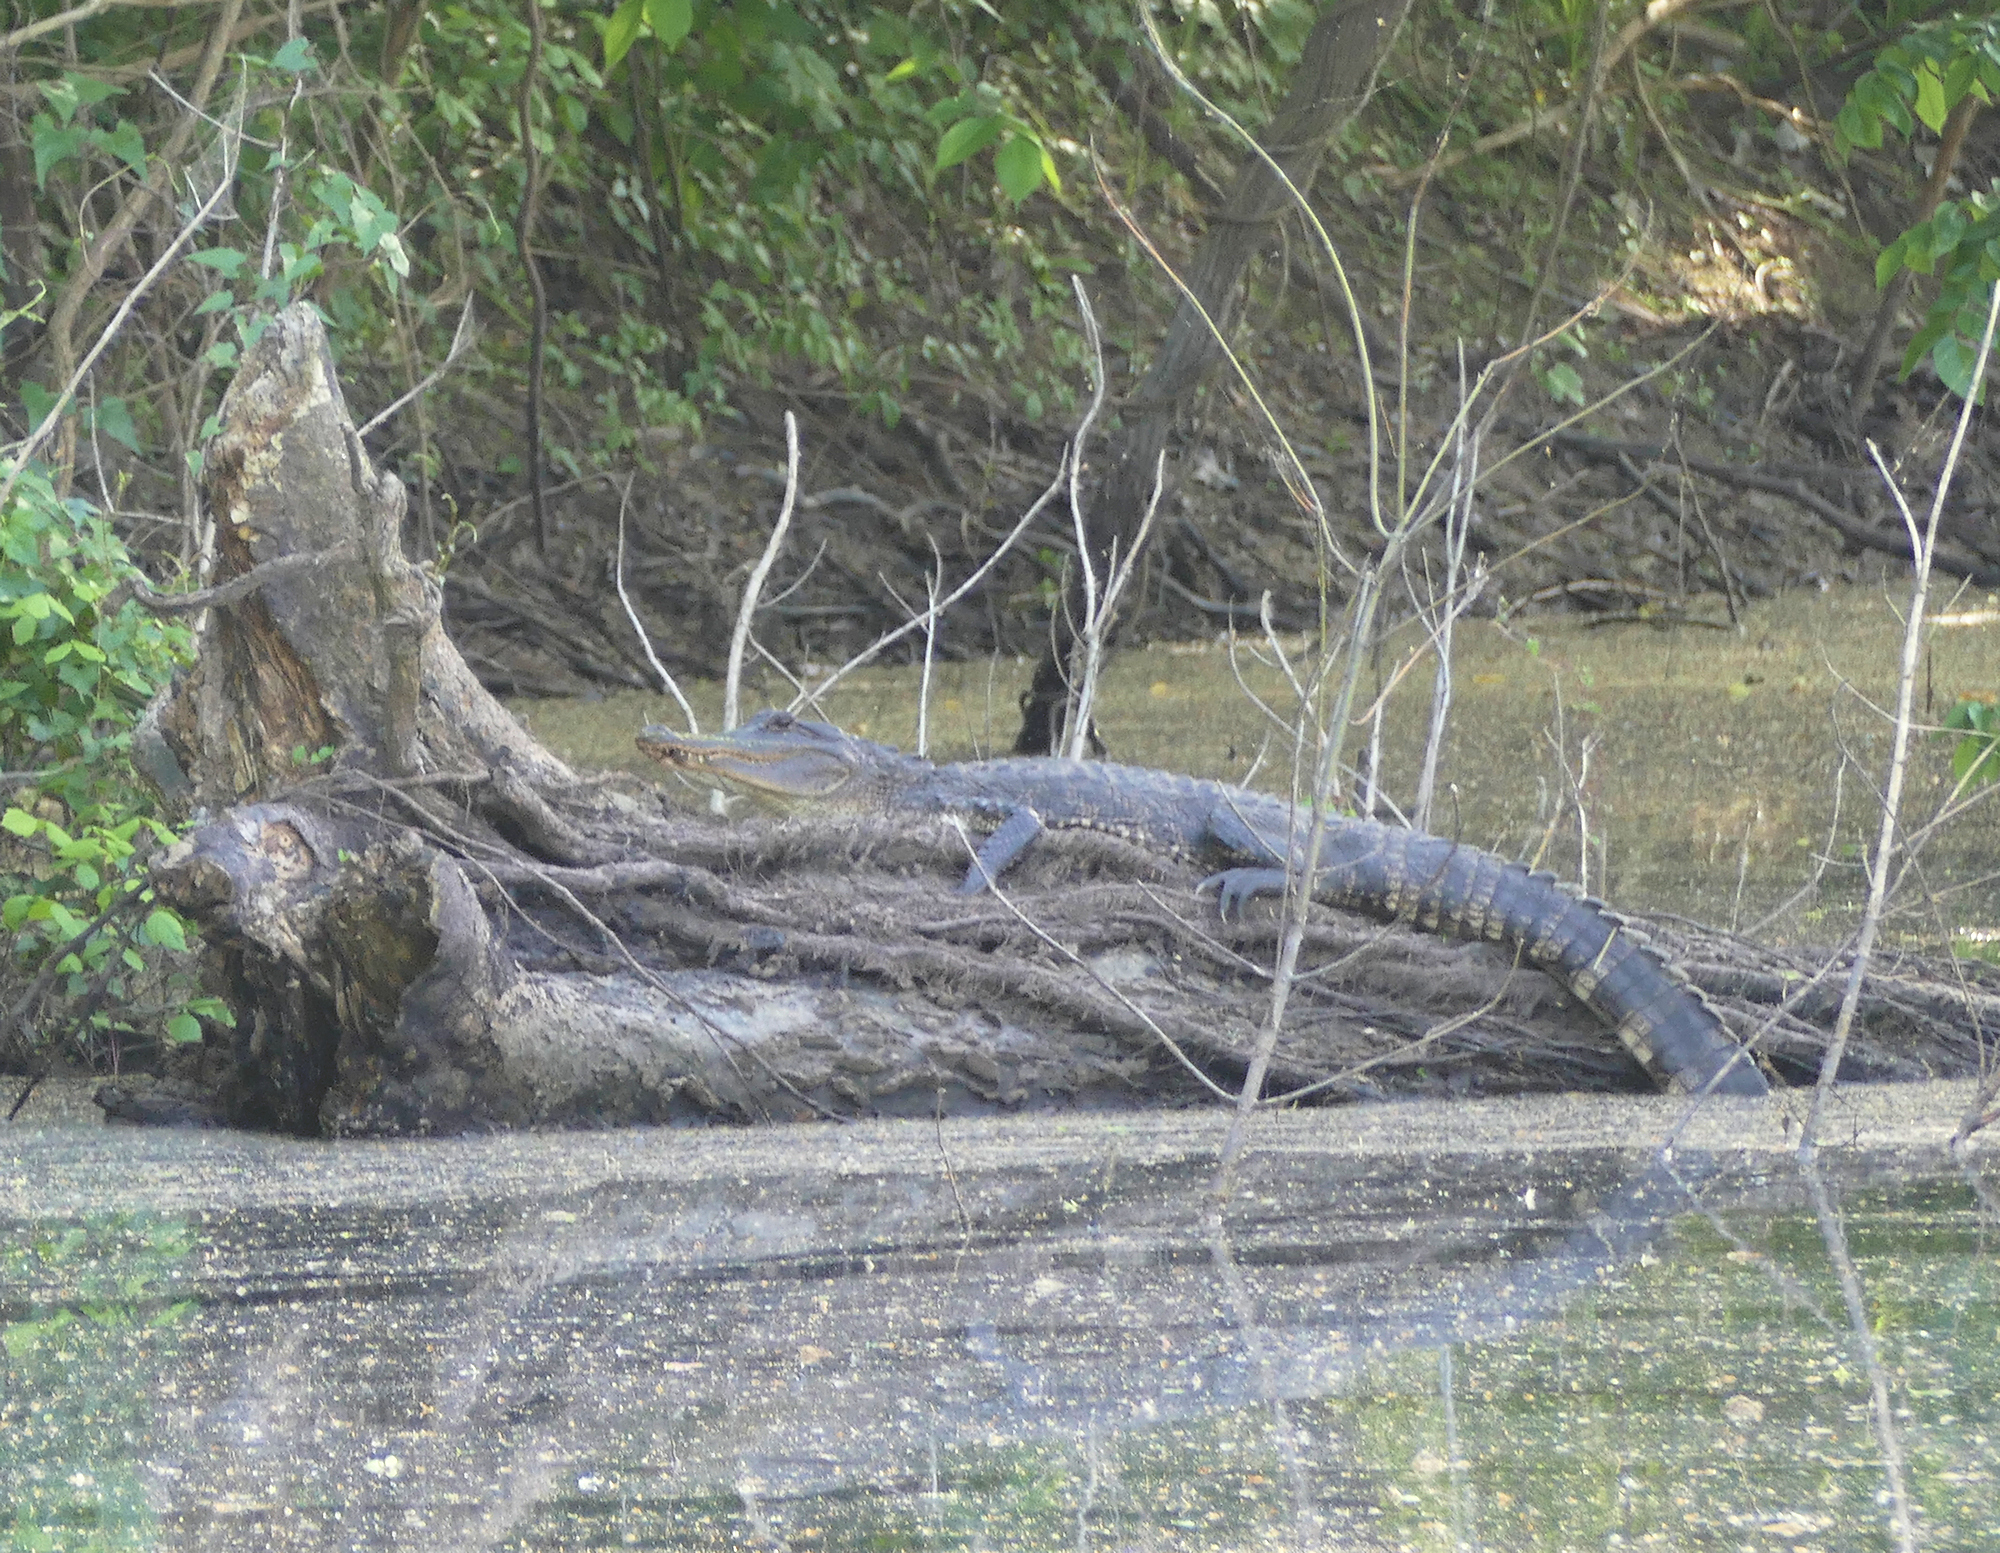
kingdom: Animalia
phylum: Chordata
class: Crocodylia
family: Alligatoridae
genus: Alligator
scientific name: Alligator mississippiensis
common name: American alligator
